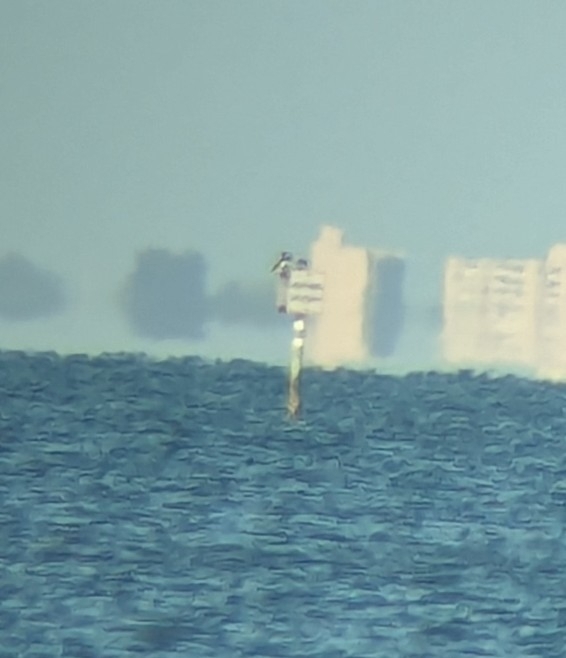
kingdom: Animalia
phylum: Chordata
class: Aves
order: Suliformes
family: Sulidae
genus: Sula
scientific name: Sula leucogaster
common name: Brown booby
